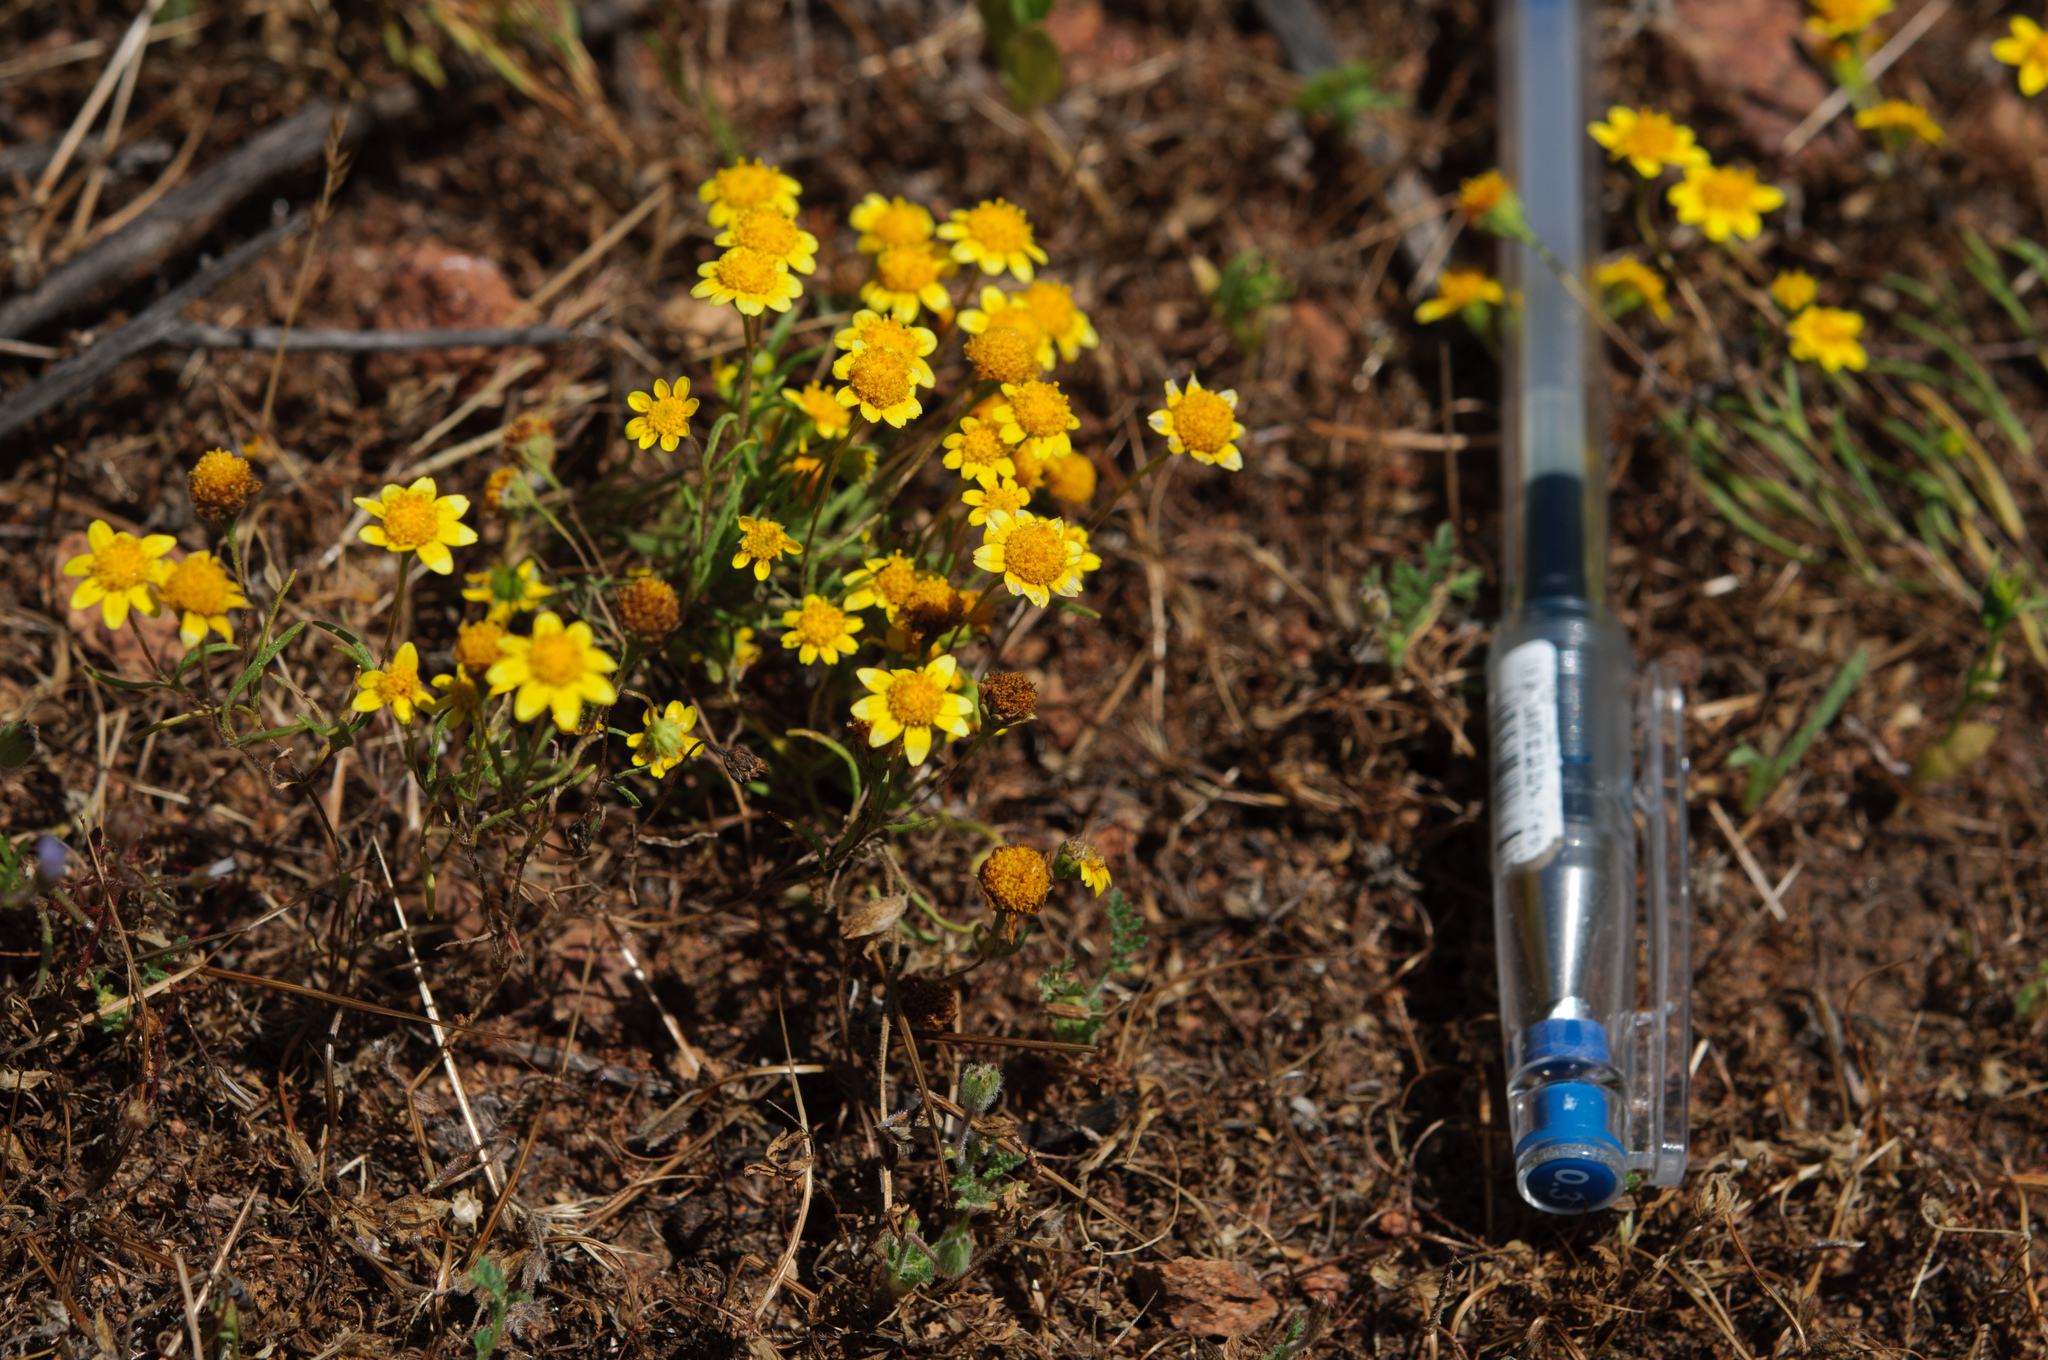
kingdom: Plantae
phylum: Tracheophyta
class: Magnoliopsida
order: Asterales
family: Asteraceae
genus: Lasthenia
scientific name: Lasthenia gracilis
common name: Common goldfields
